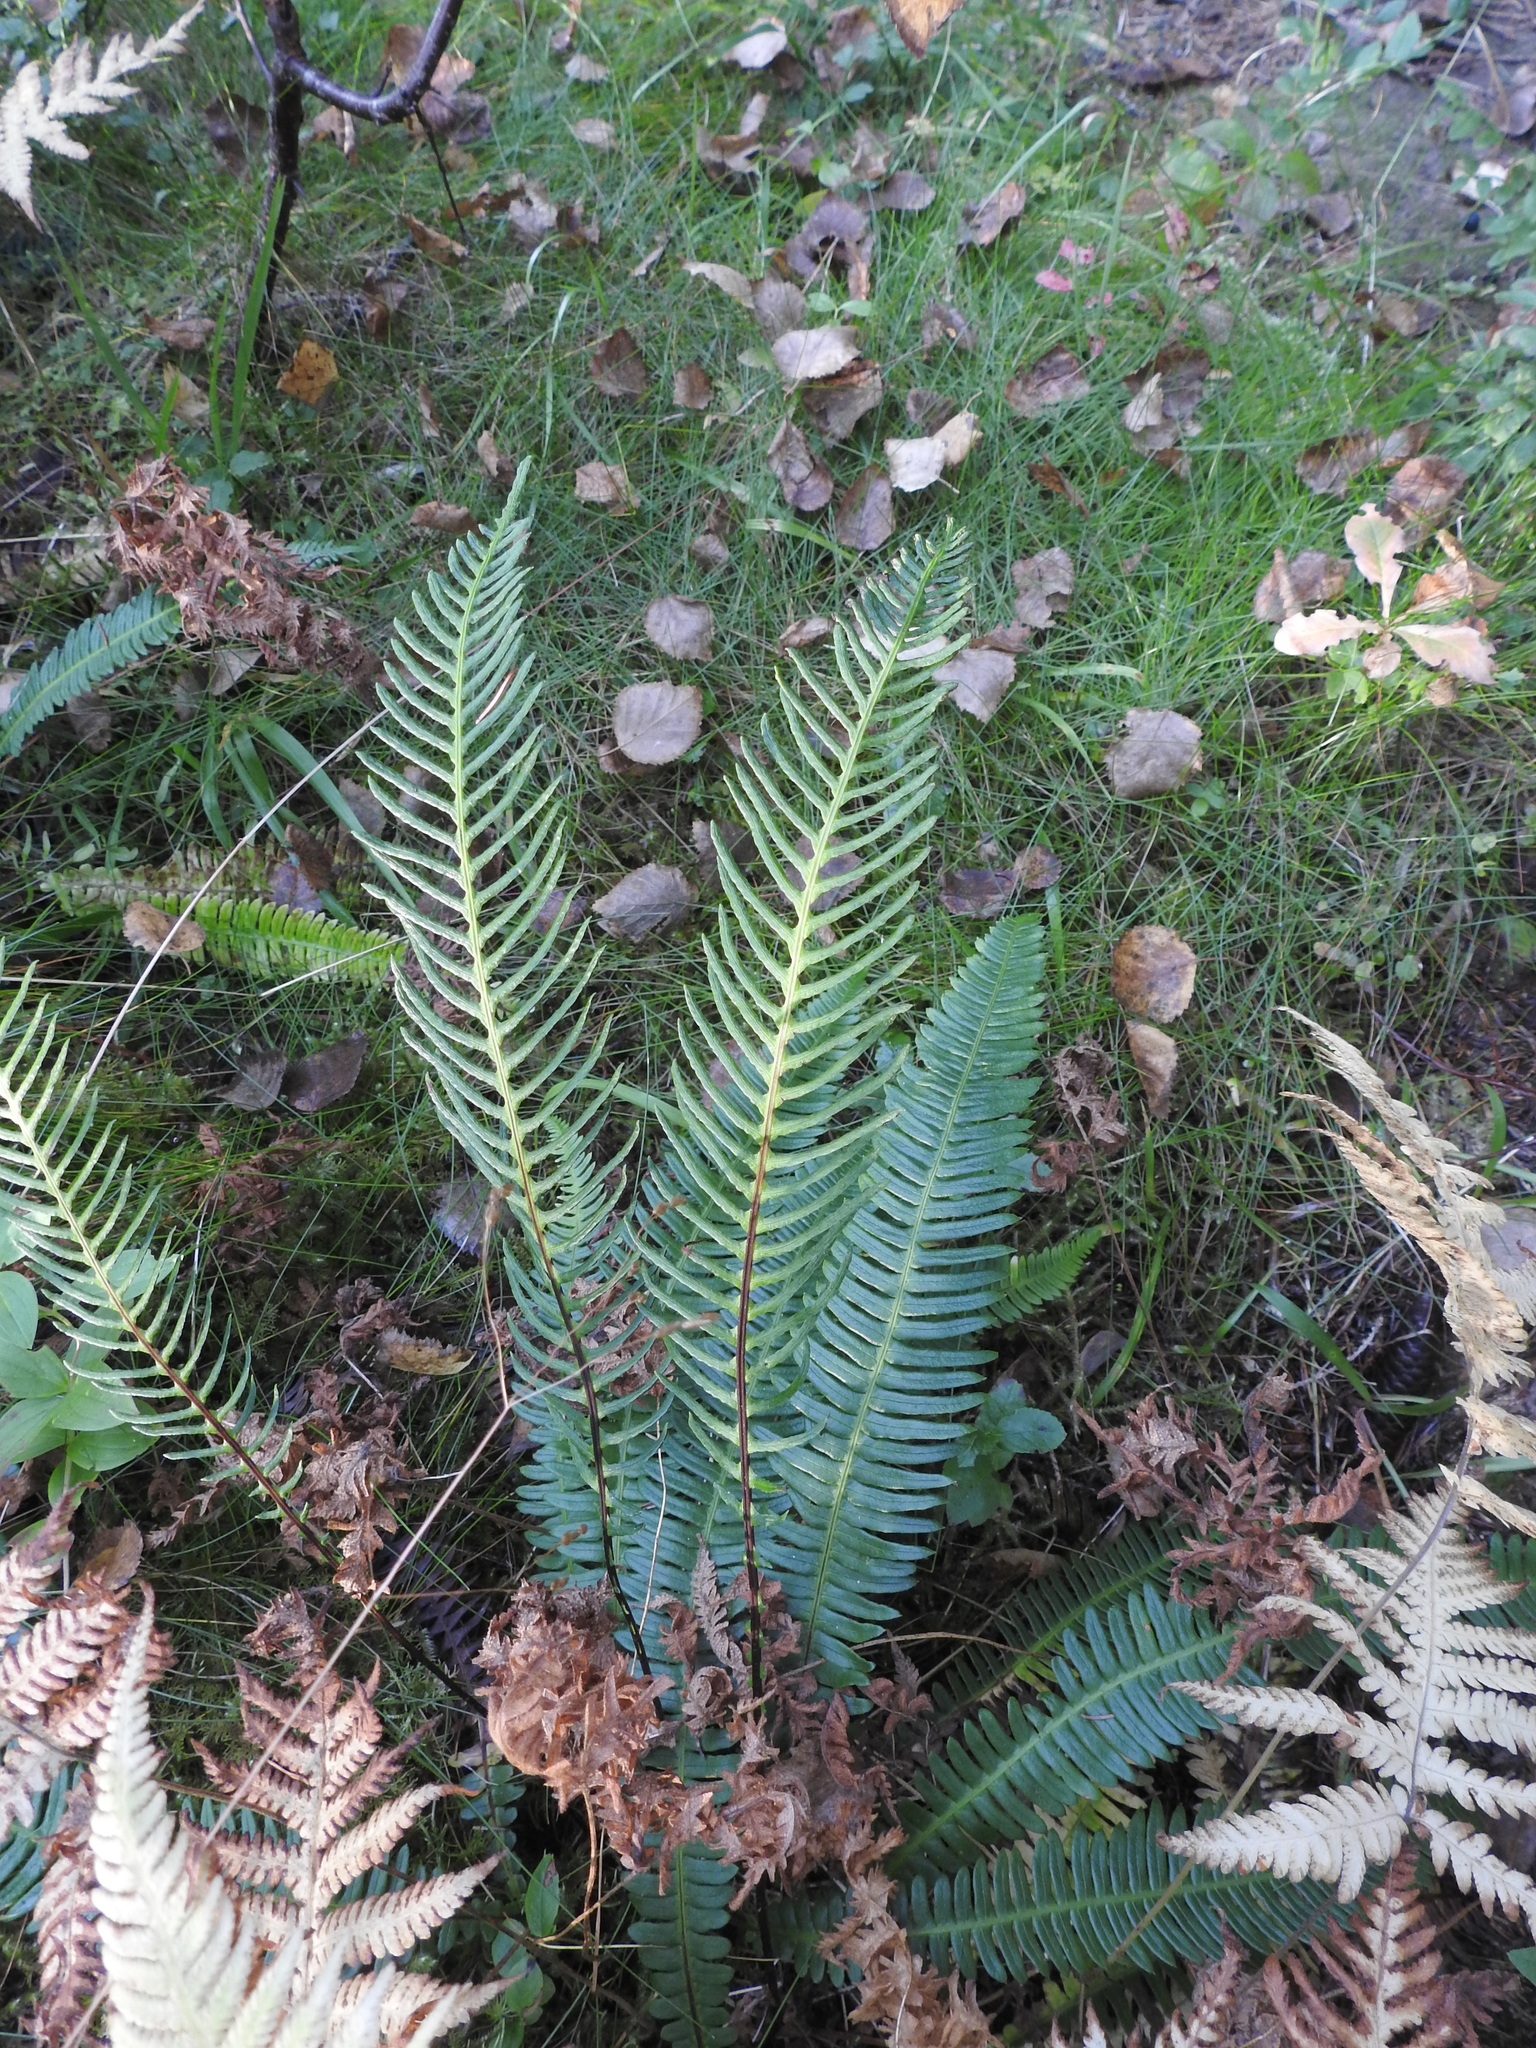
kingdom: Plantae
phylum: Tracheophyta
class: Polypodiopsida
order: Polypodiales
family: Blechnaceae
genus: Struthiopteris
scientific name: Struthiopteris spicant
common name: Deer fern
